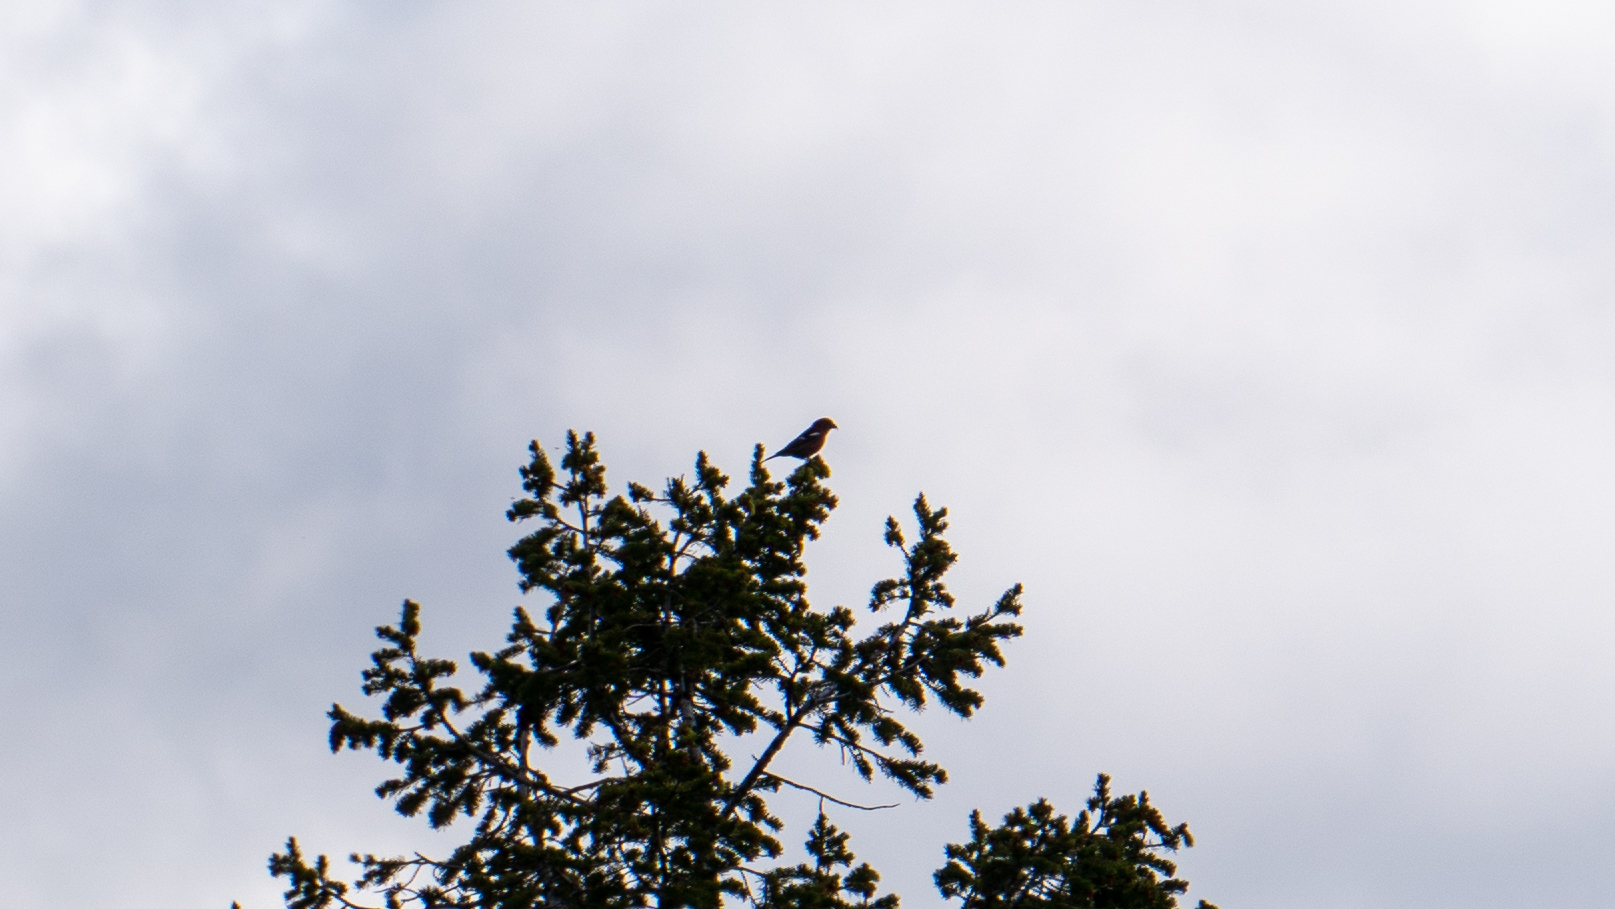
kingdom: Animalia
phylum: Chordata
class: Aves
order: Passeriformes
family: Fringillidae
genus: Loxia
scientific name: Loxia leucoptera
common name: Two-barred crossbill
